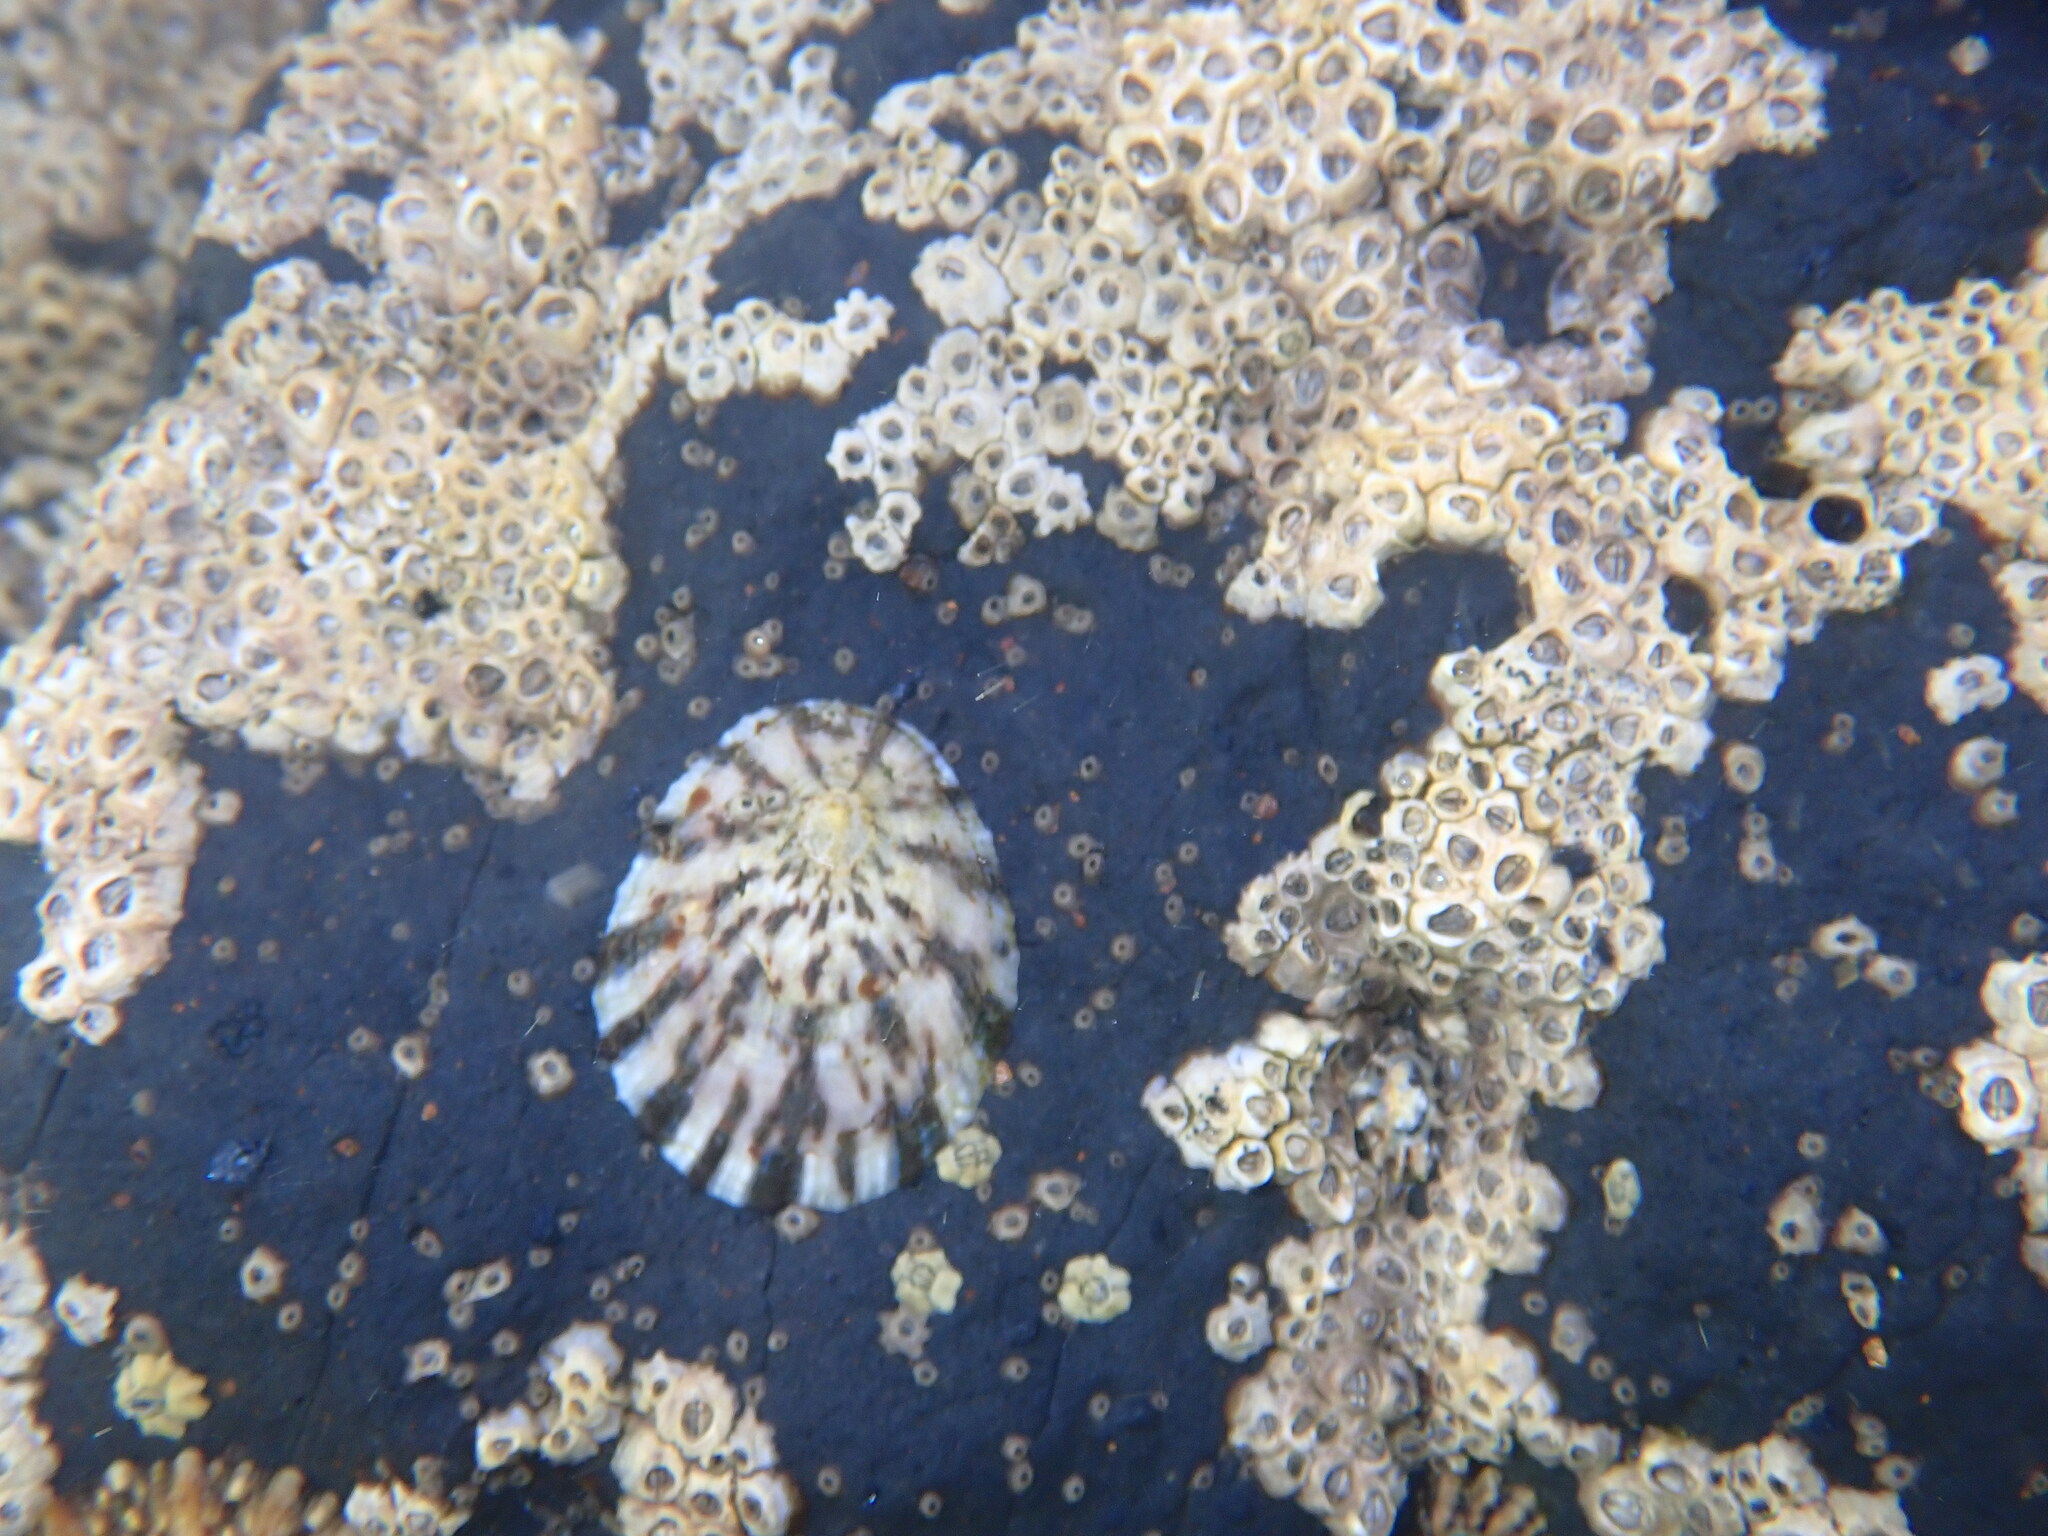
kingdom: Animalia
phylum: Mollusca
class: Gastropoda
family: Nacellidae
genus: Cellana
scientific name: Cellana radians
